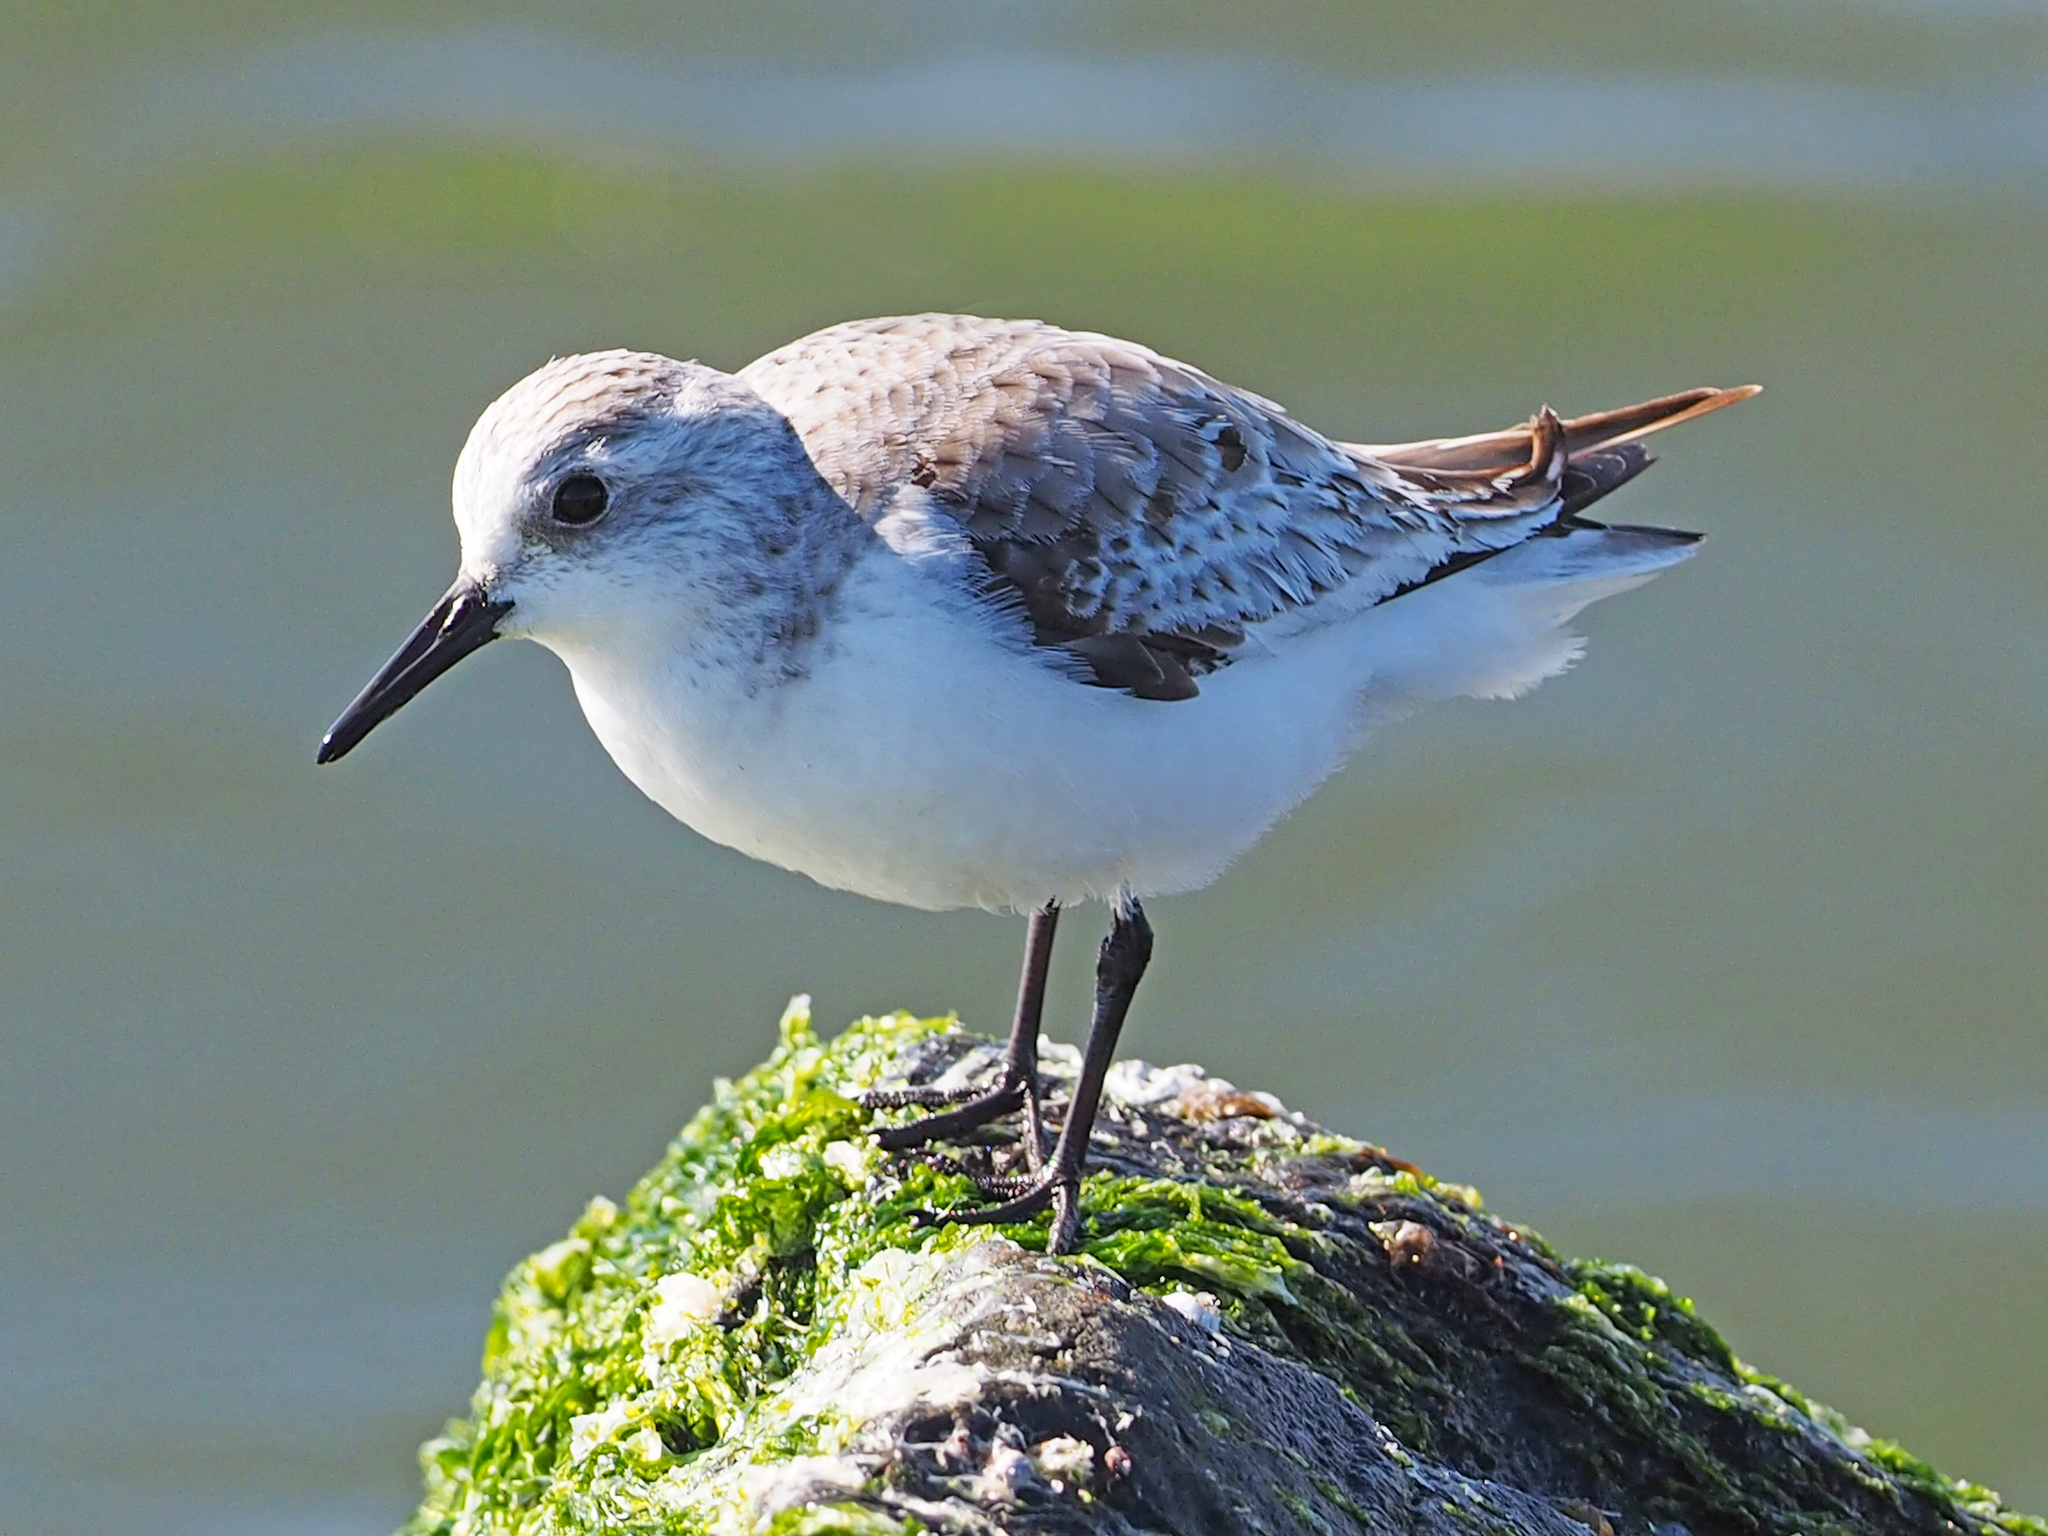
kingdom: Animalia
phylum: Chordata
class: Aves
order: Charadriiformes
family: Scolopacidae
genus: Calidris
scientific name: Calidris alba
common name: Sanderling
